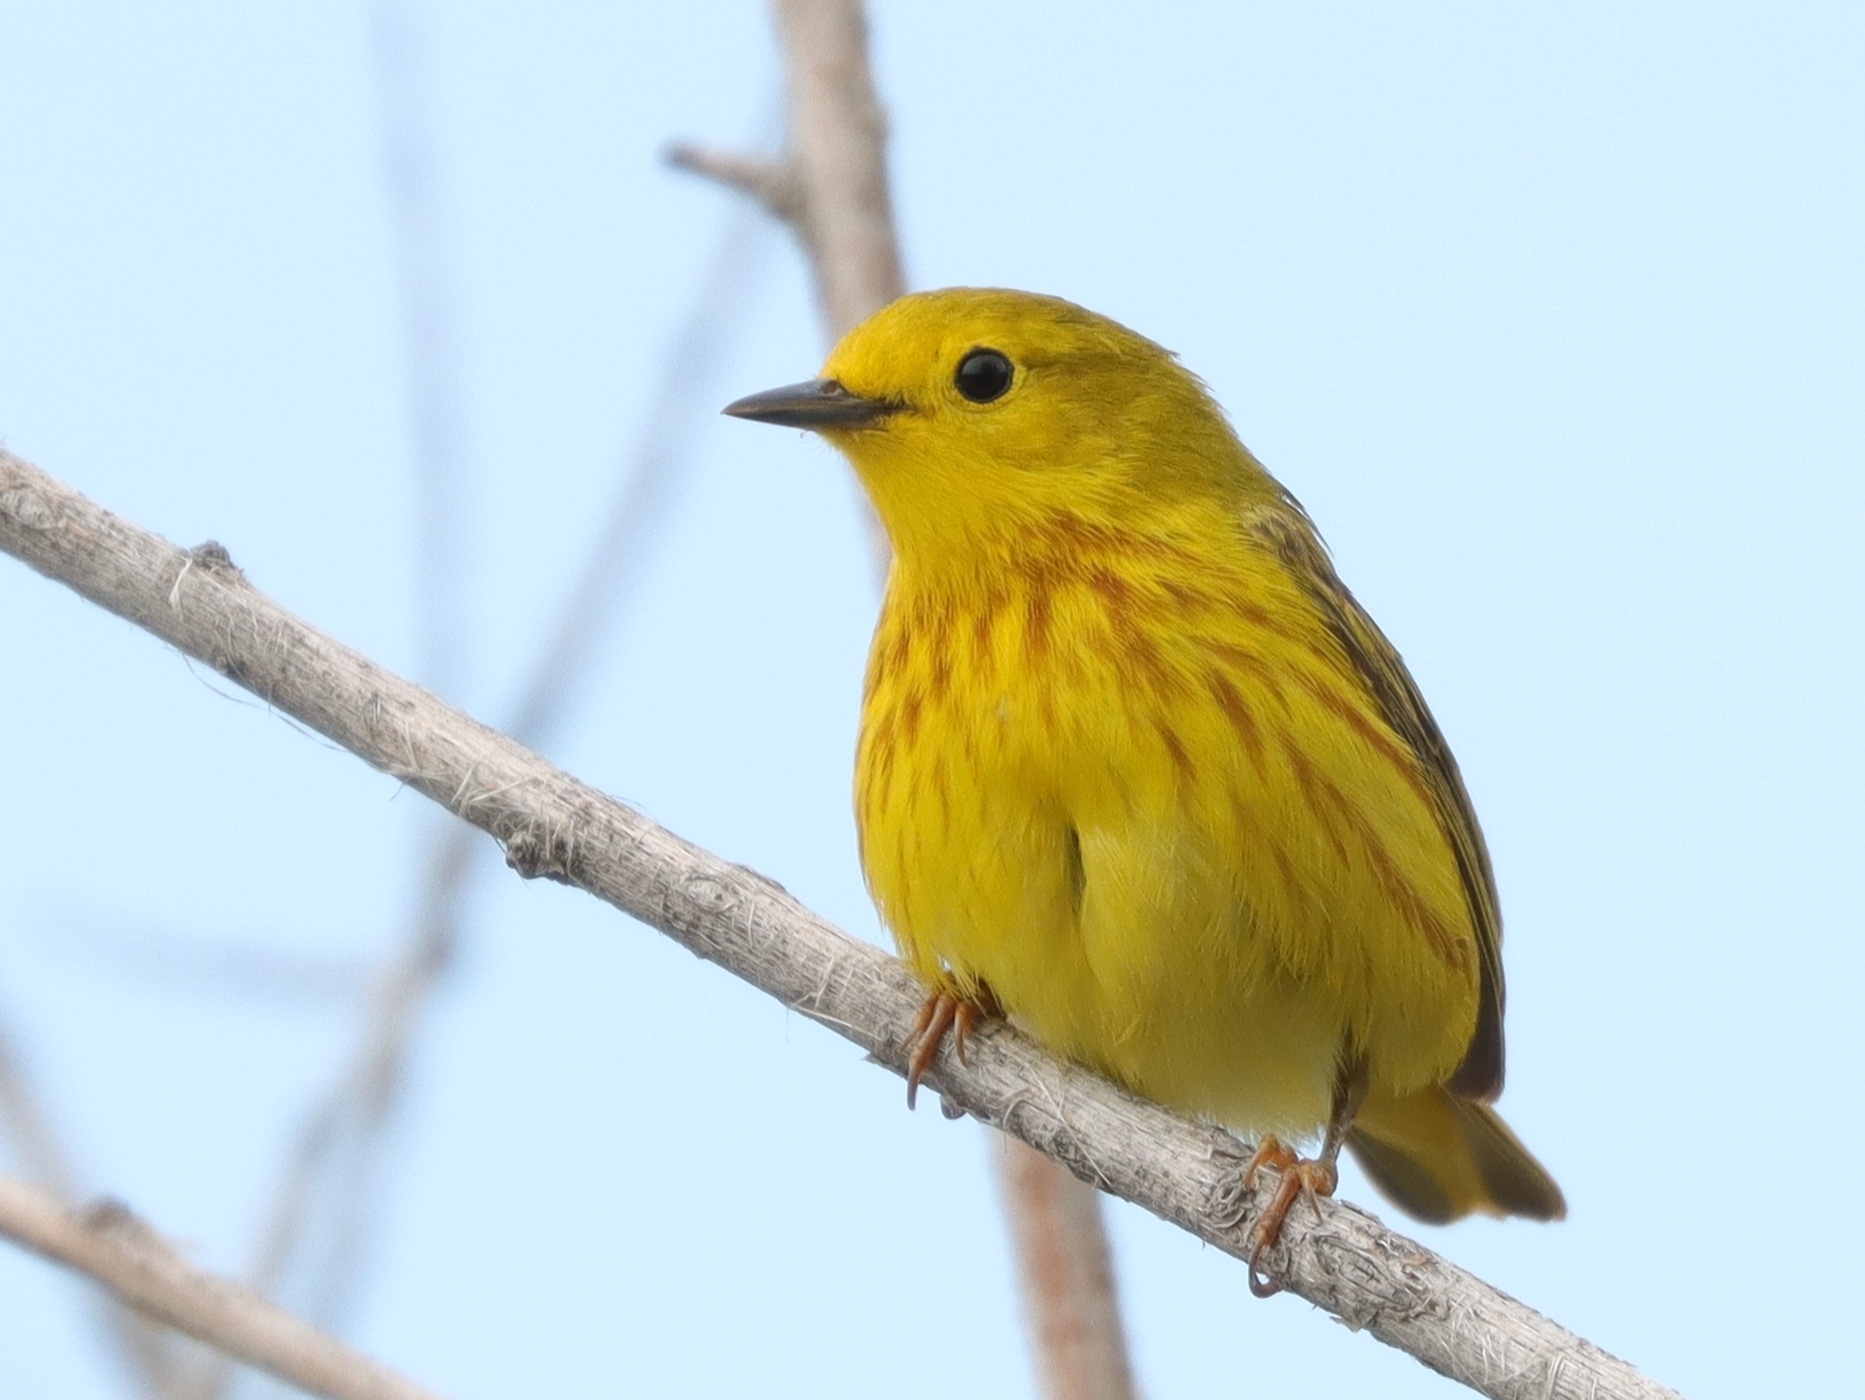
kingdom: Animalia
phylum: Chordata
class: Aves
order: Passeriformes
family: Parulidae
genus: Setophaga
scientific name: Setophaga petechia
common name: Yellow warbler
